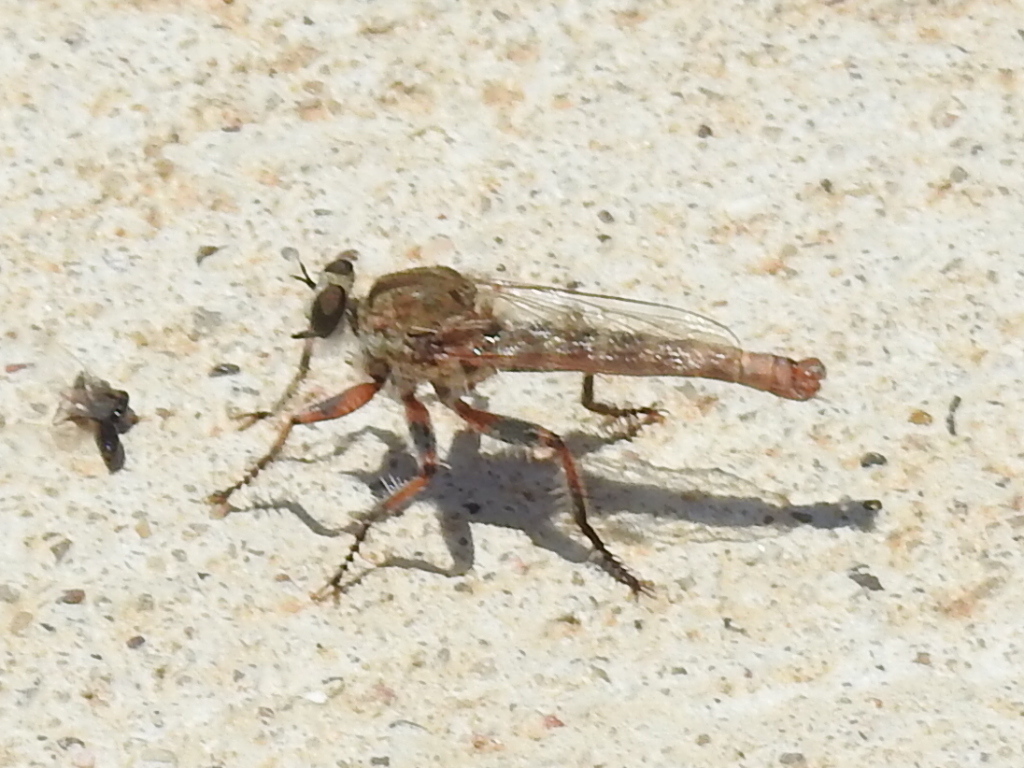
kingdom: Animalia
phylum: Arthropoda
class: Insecta
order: Diptera
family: Asilidae
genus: Proctacanthella
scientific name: Proctacanthella cacopiloga
